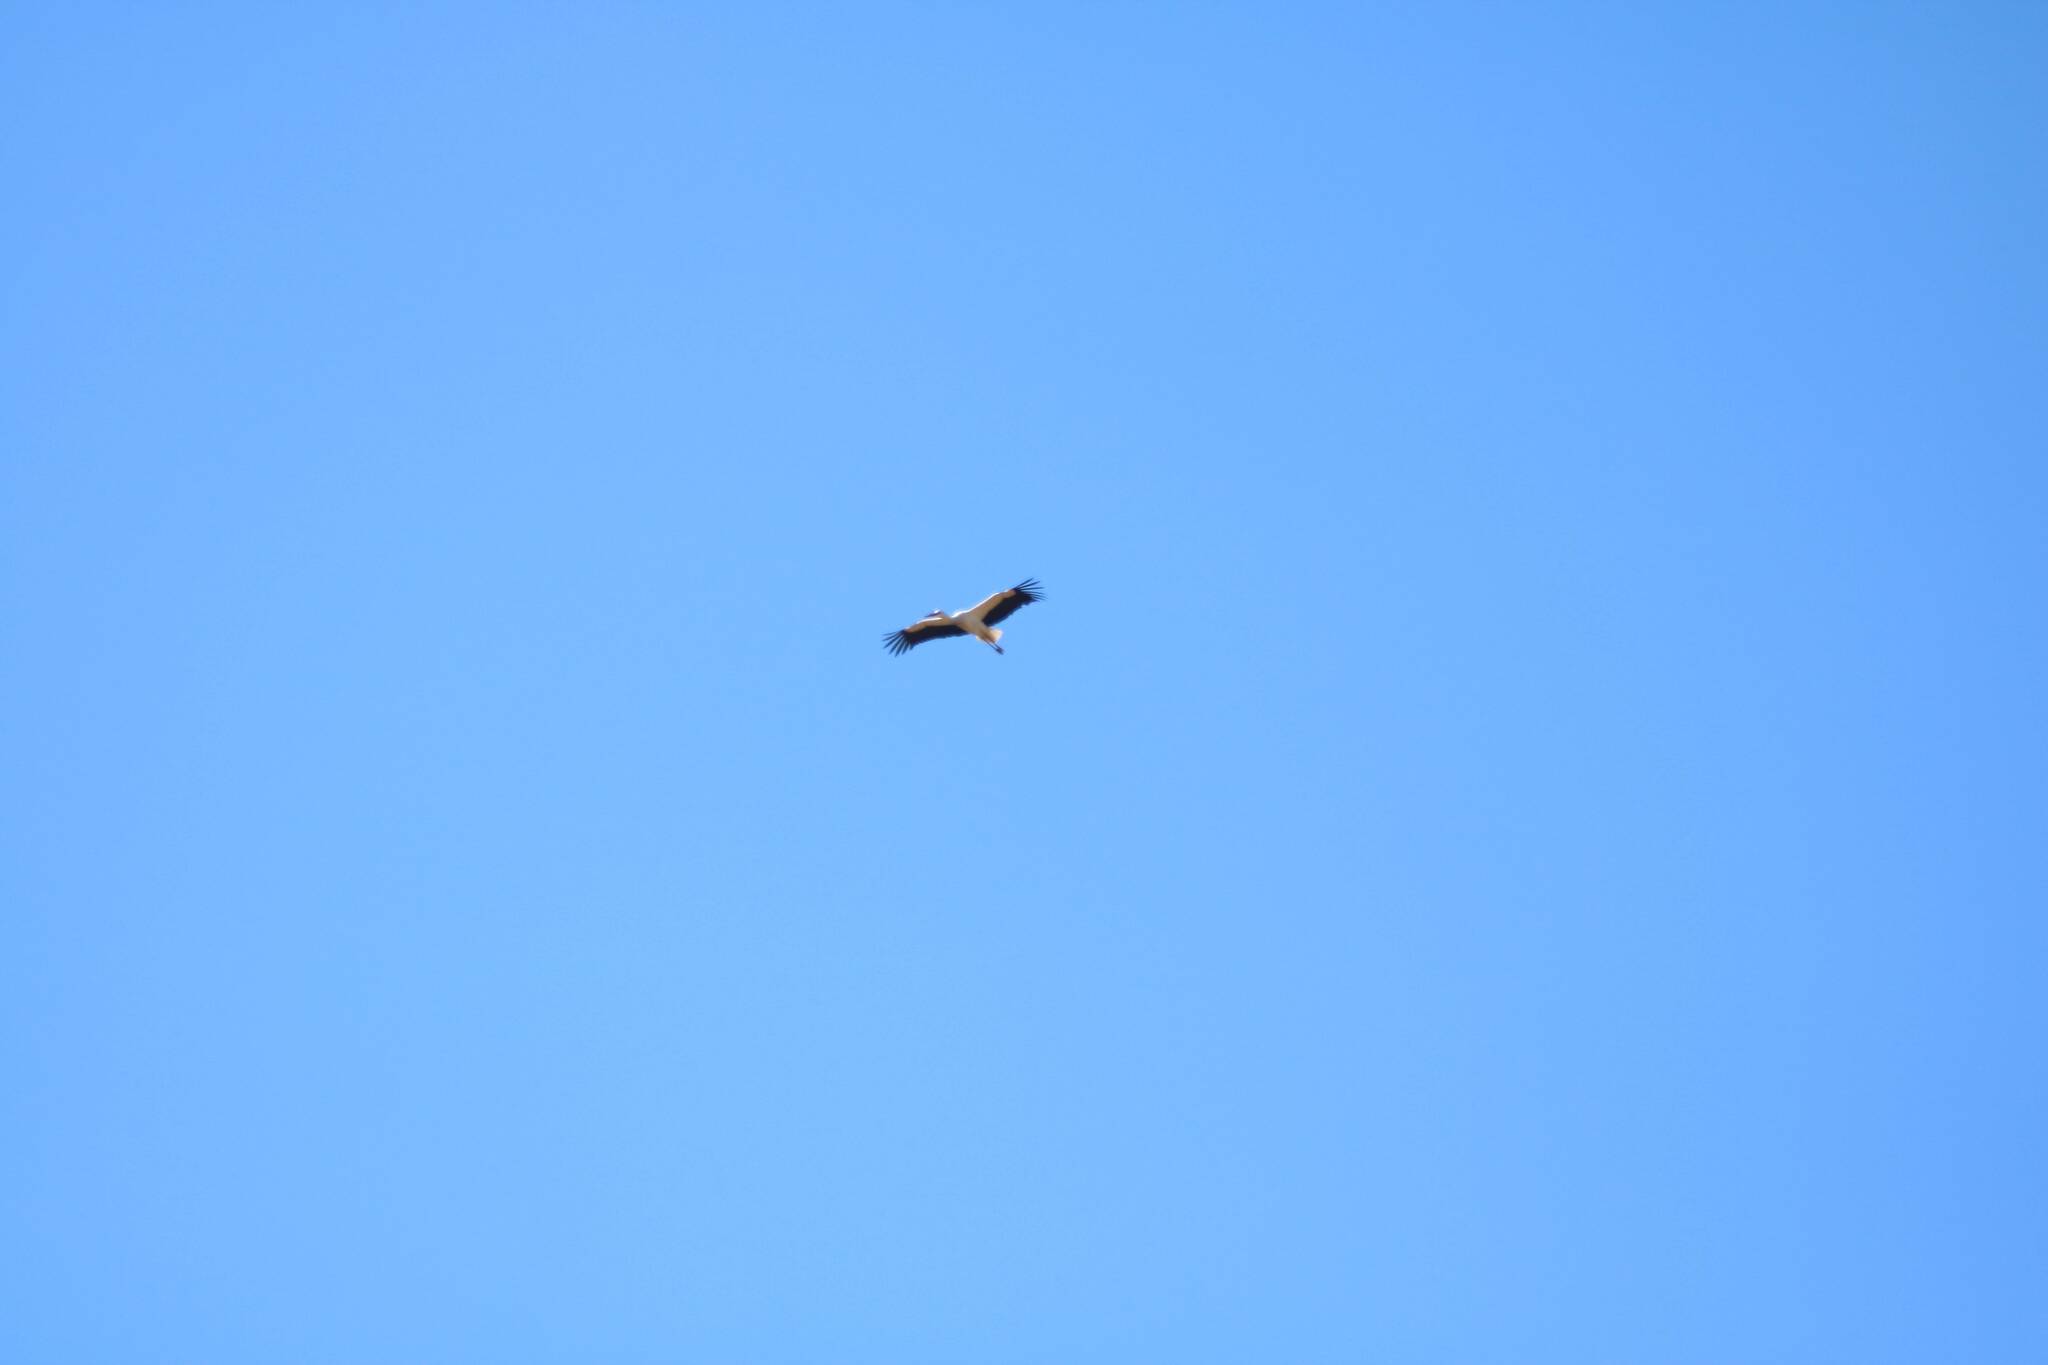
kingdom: Animalia
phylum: Chordata
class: Aves
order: Ciconiiformes
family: Ciconiidae
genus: Ciconia
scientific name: Ciconia ciconia
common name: White stork
